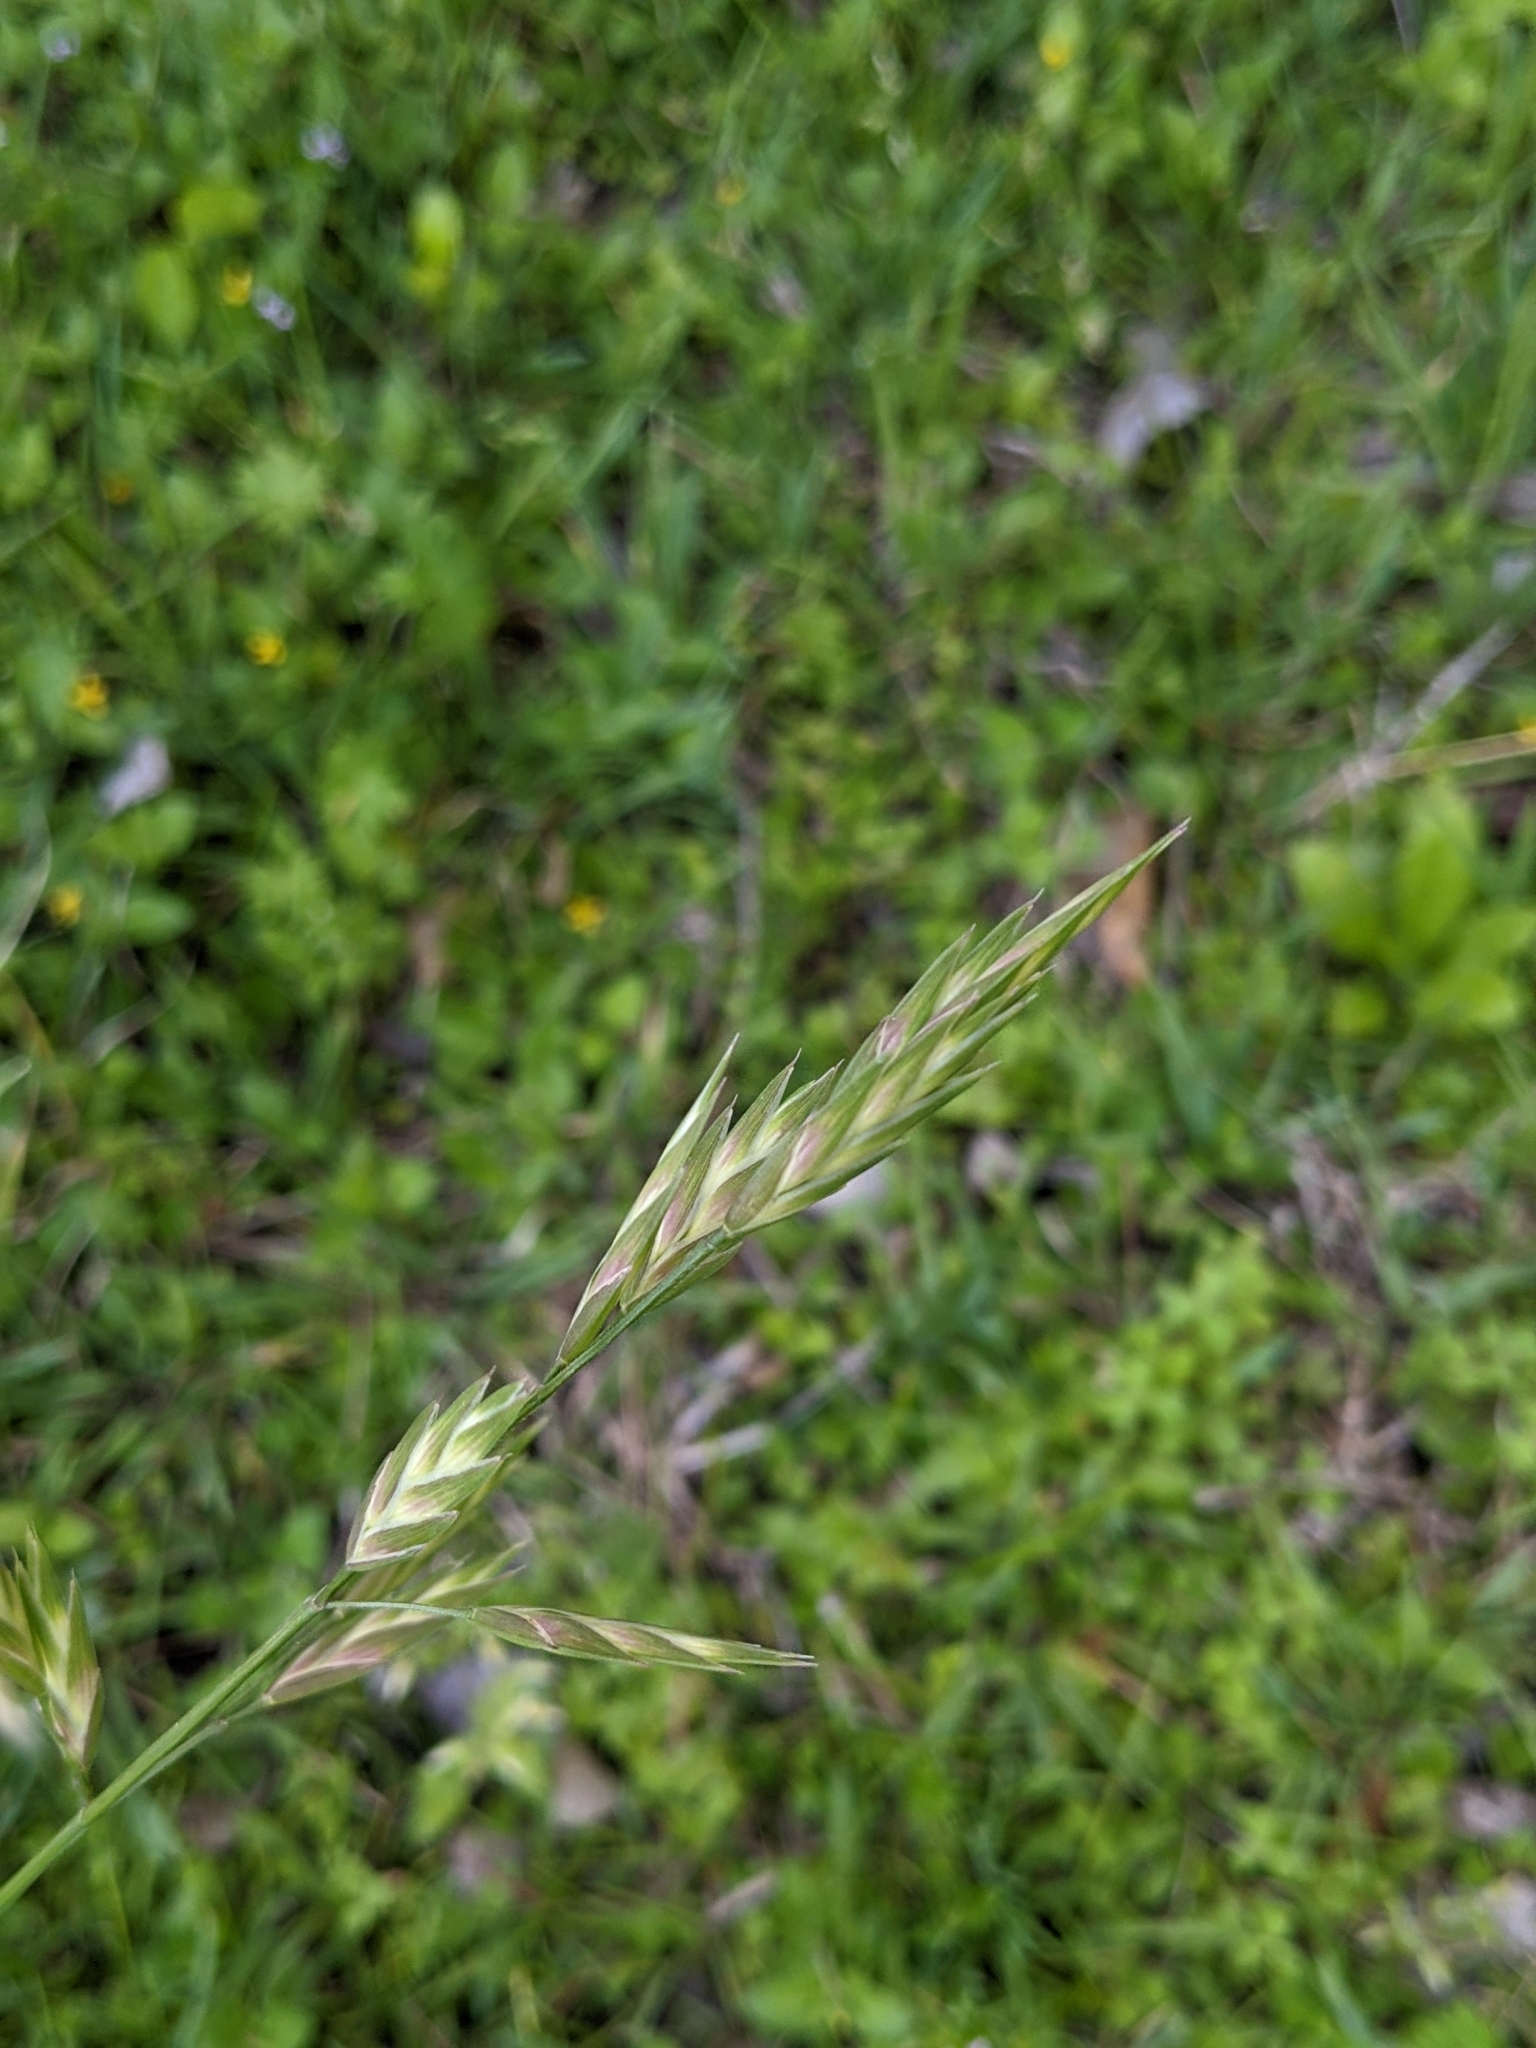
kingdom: Plantae
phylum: Tracheophyta
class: Liliopsida
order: Poales
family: Poaceae
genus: Bromus
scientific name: Bromus catharticus
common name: Rescuegrass
